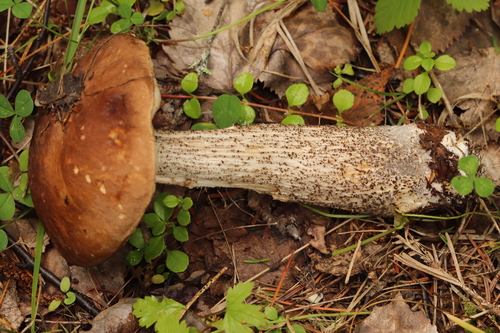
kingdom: Fungi
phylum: Basidiomycota
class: Agaricomycetes
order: Boletales
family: Boletaceae
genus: Leccinum
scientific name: Leccinum scabrum
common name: Blushing bolete
